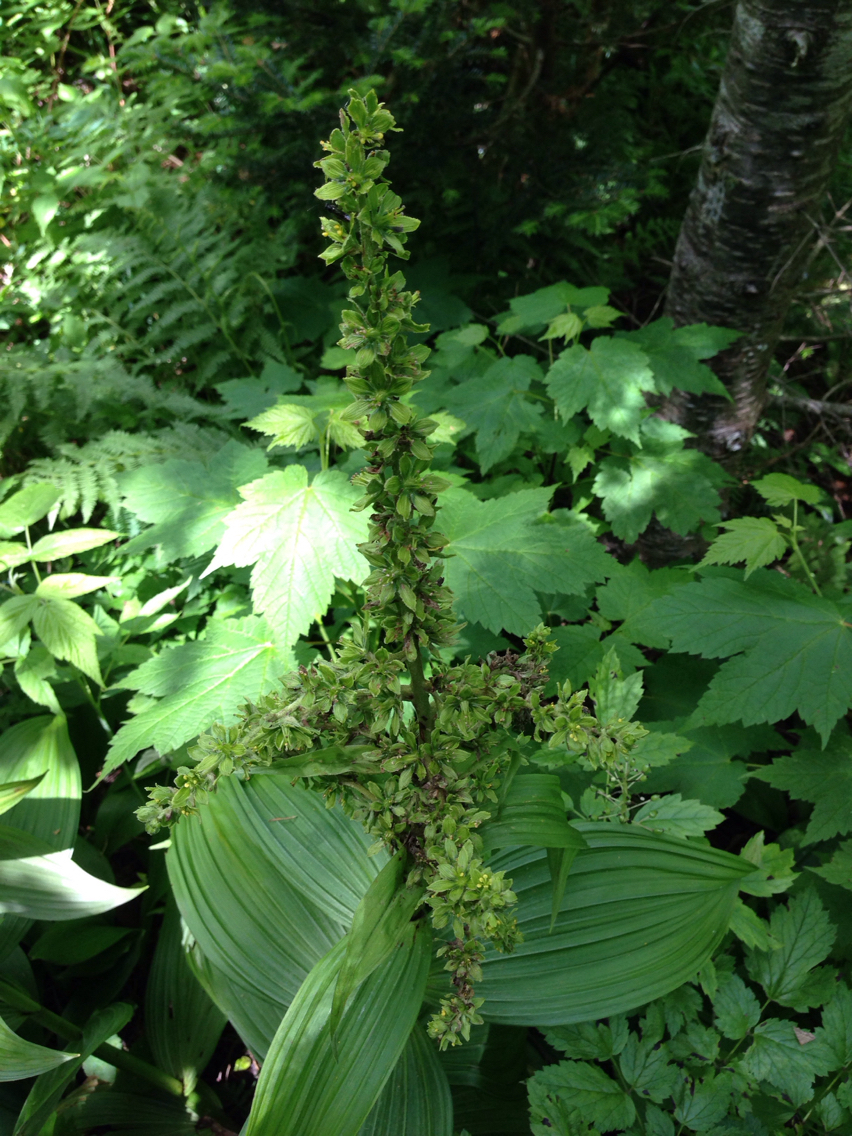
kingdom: Plantae
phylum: Tracheophyta
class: Liliopsida
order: Liliales
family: Melanthiaceae
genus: Veratrum
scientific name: Veratrum viride
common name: American false hellebore
